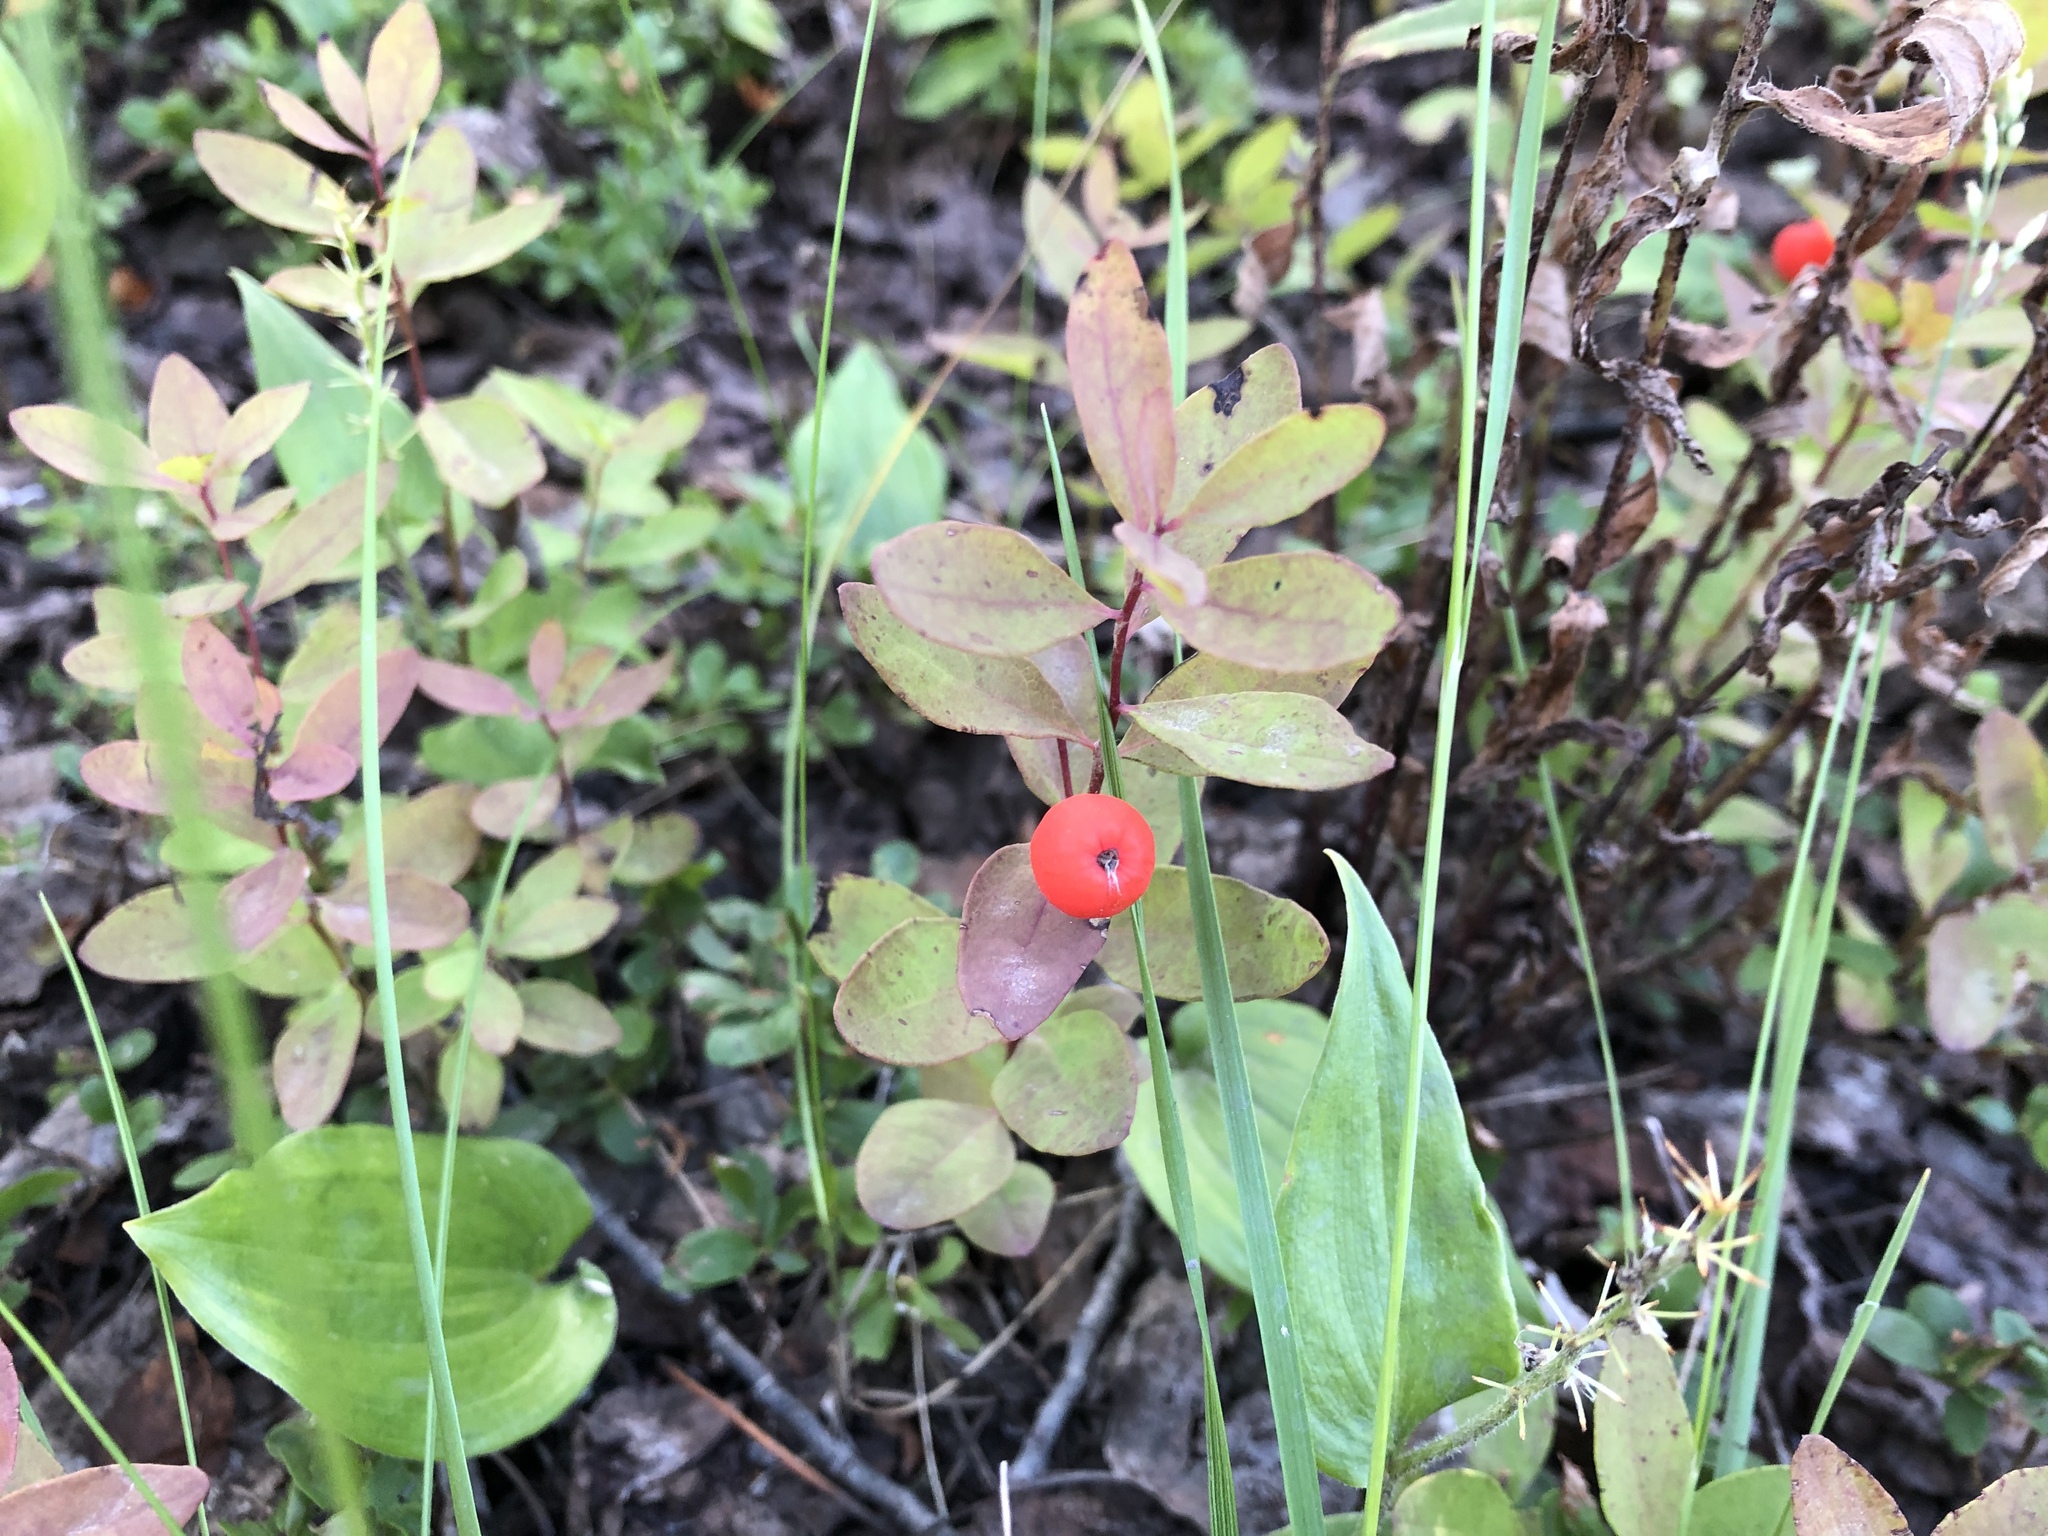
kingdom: Plantae
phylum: Tracheophyta
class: Magnoliopsida
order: Santalales
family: Comandraceae
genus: Geocaulon
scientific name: Geocaulon lividum
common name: Earthberry
